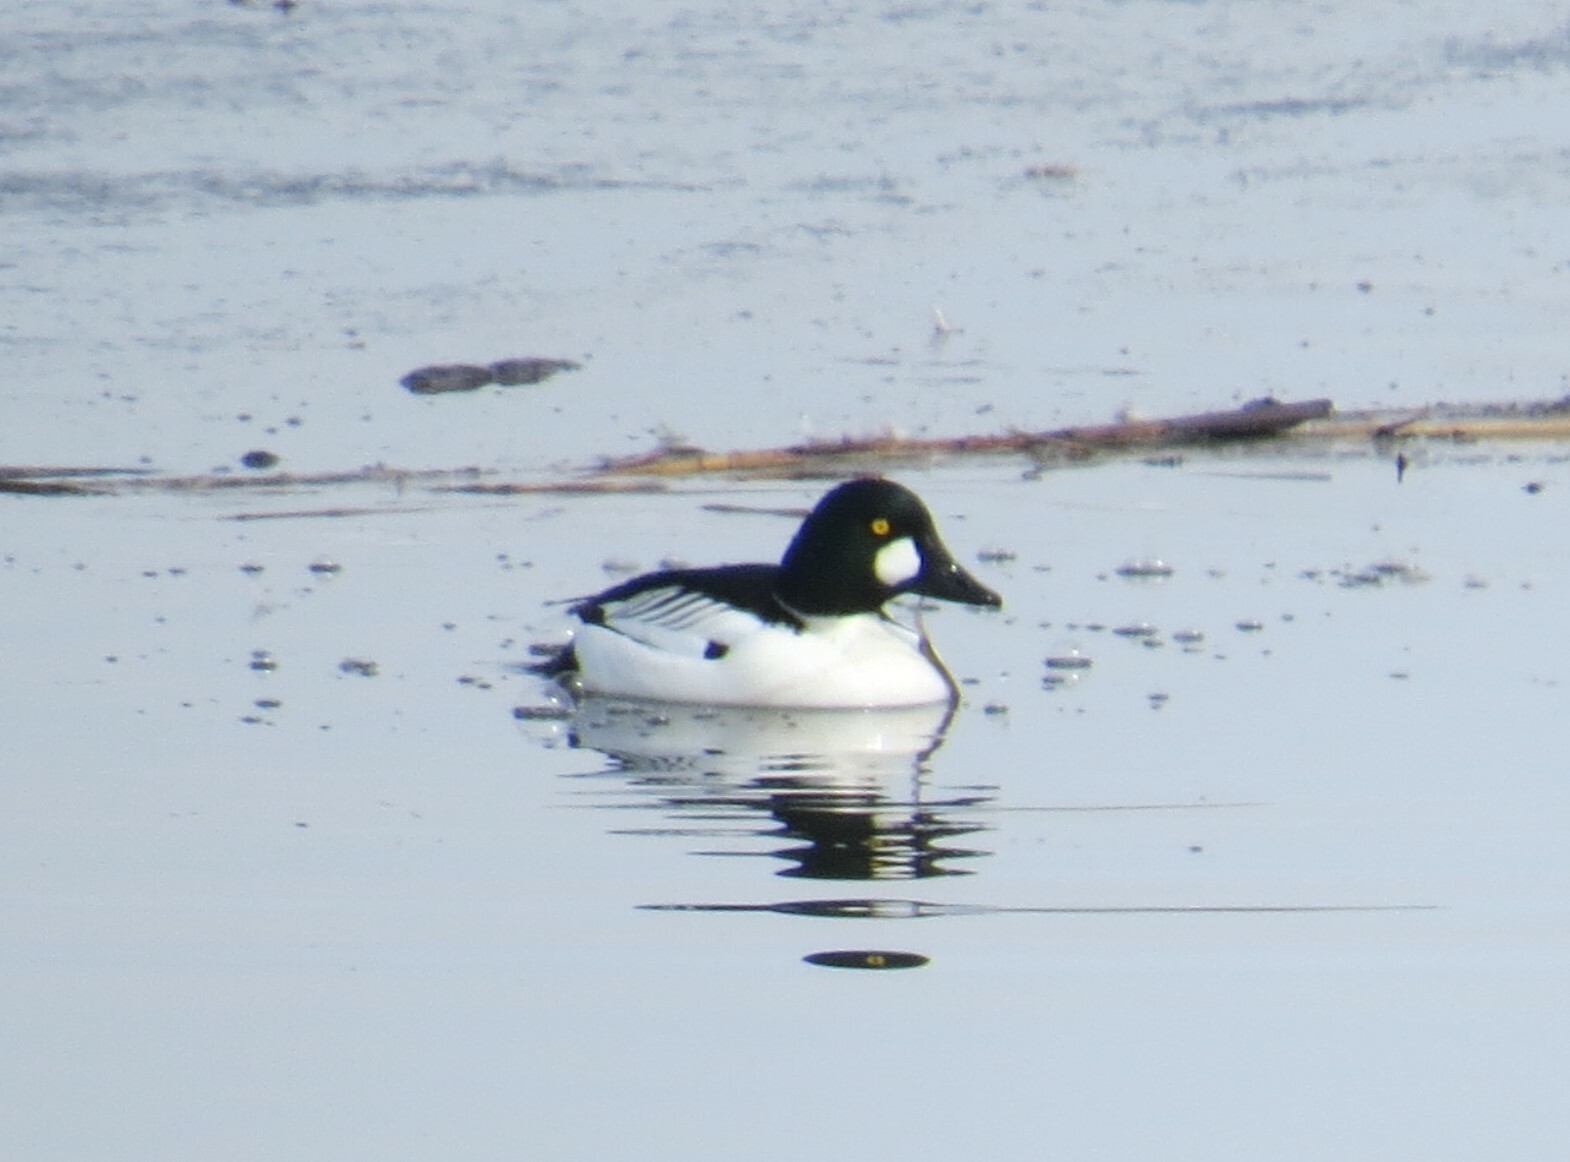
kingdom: Animalia
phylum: Chordata
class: Aves
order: Anseriformes
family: Anatidae
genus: Bucephala
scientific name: Bucephala clangula
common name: Common goldeneye
